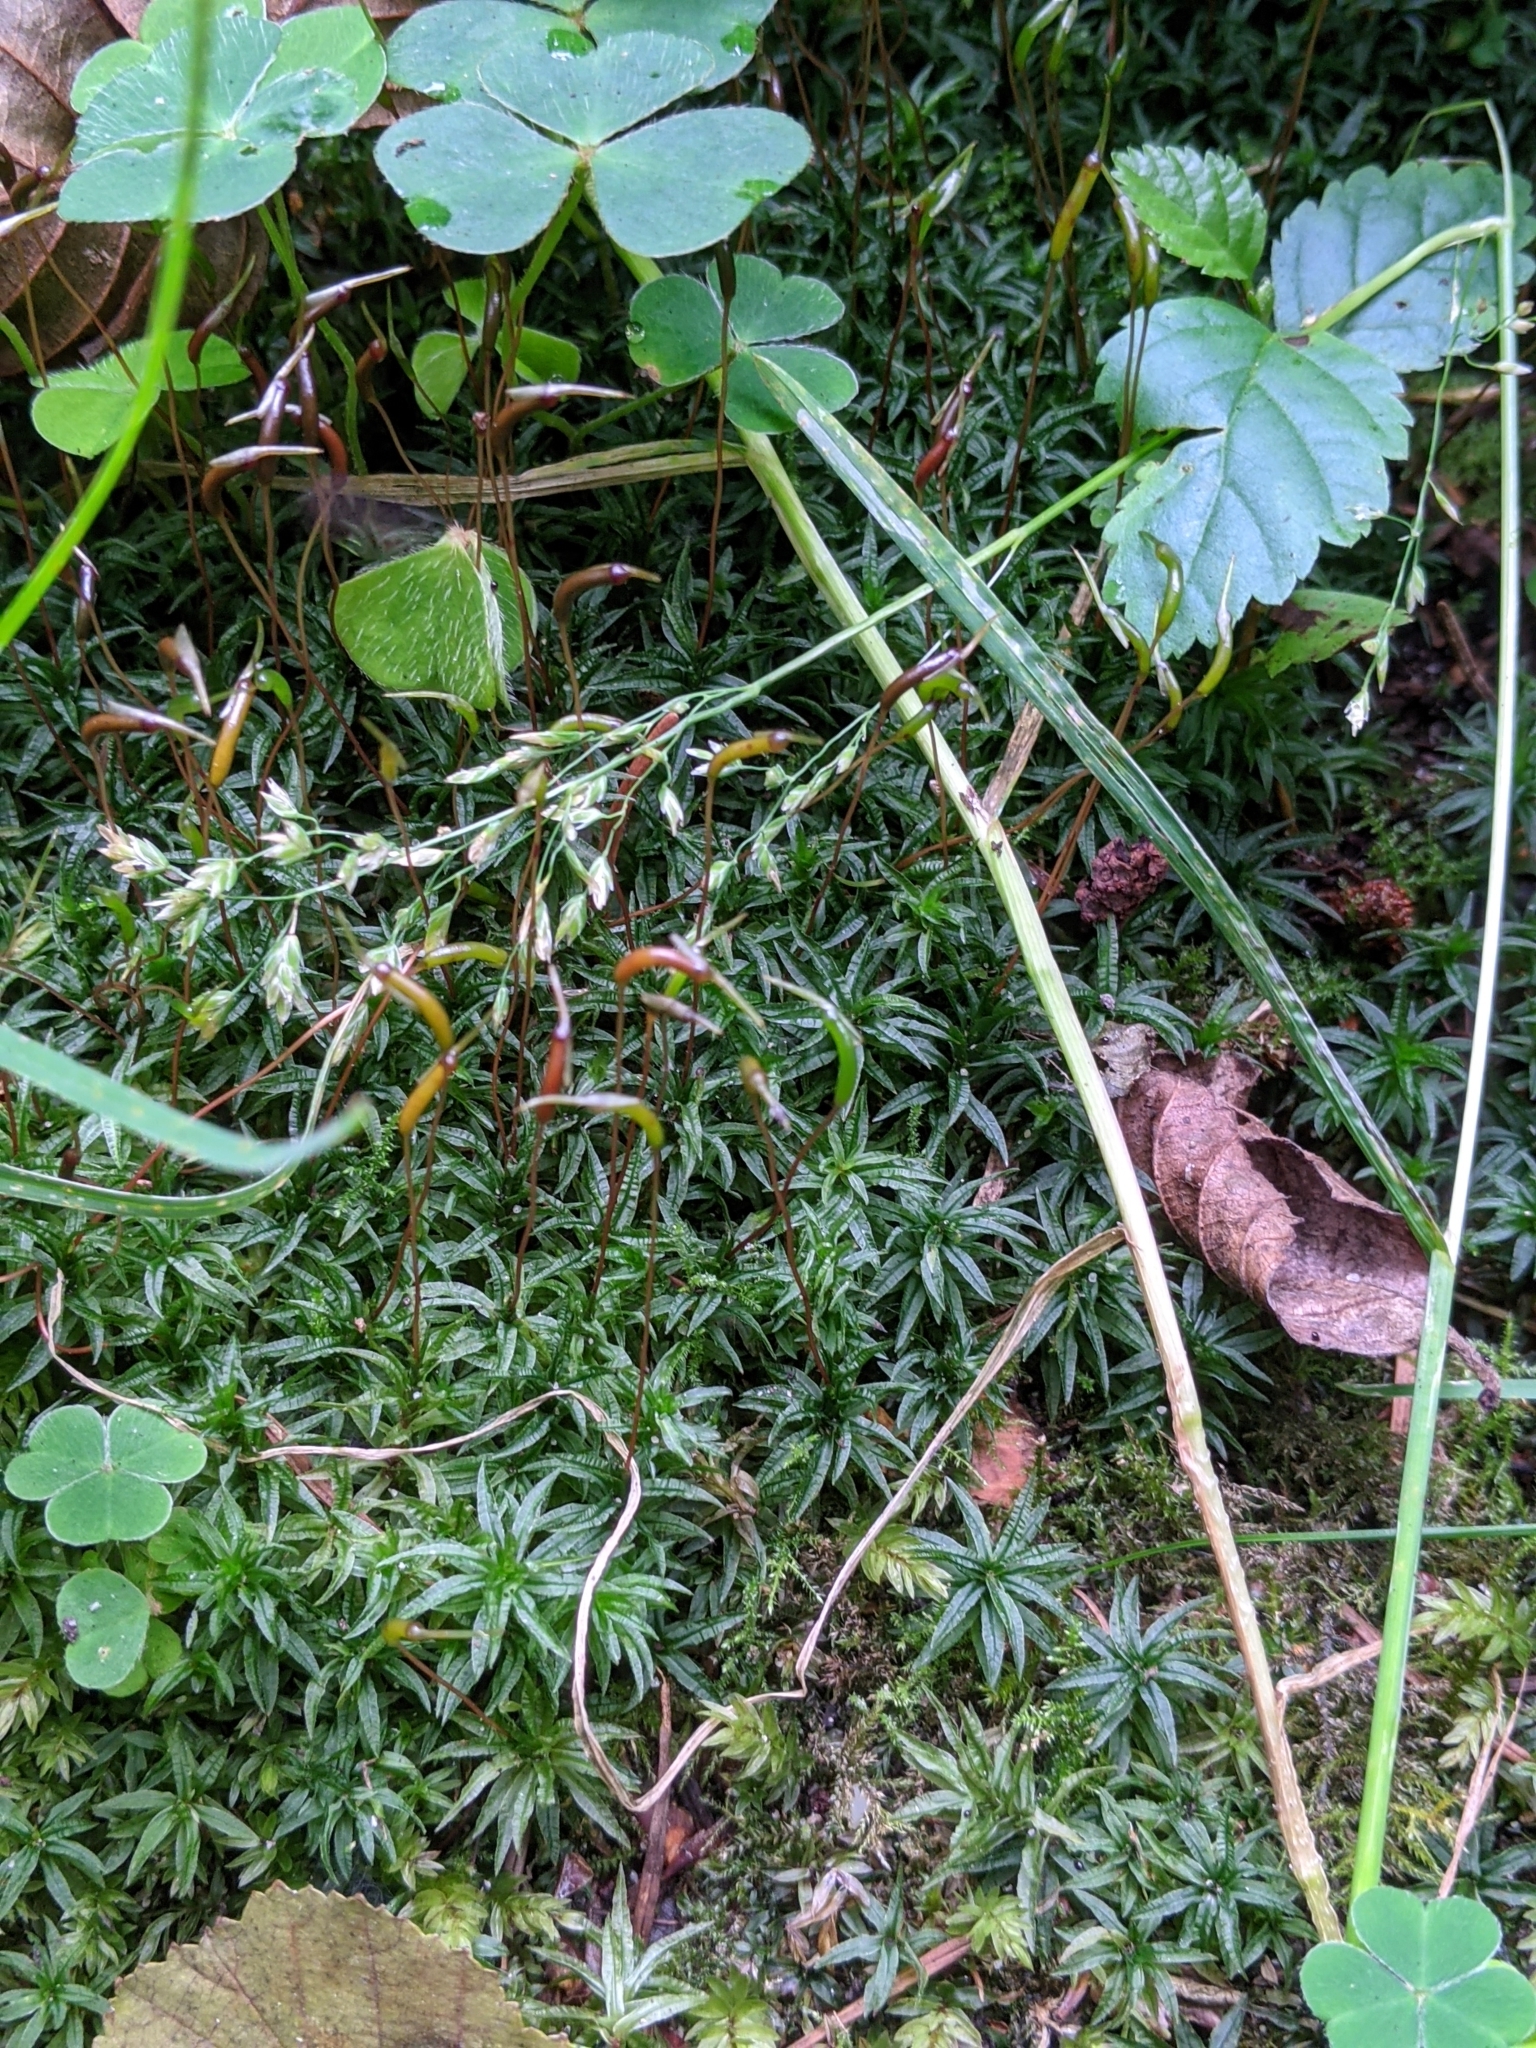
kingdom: Plantae
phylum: Bryophyta
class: Polytrichopsida
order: Polytrichales
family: Polytrichaceae
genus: Atrichum
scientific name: Atrichum undulatum
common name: Common smoothcap
